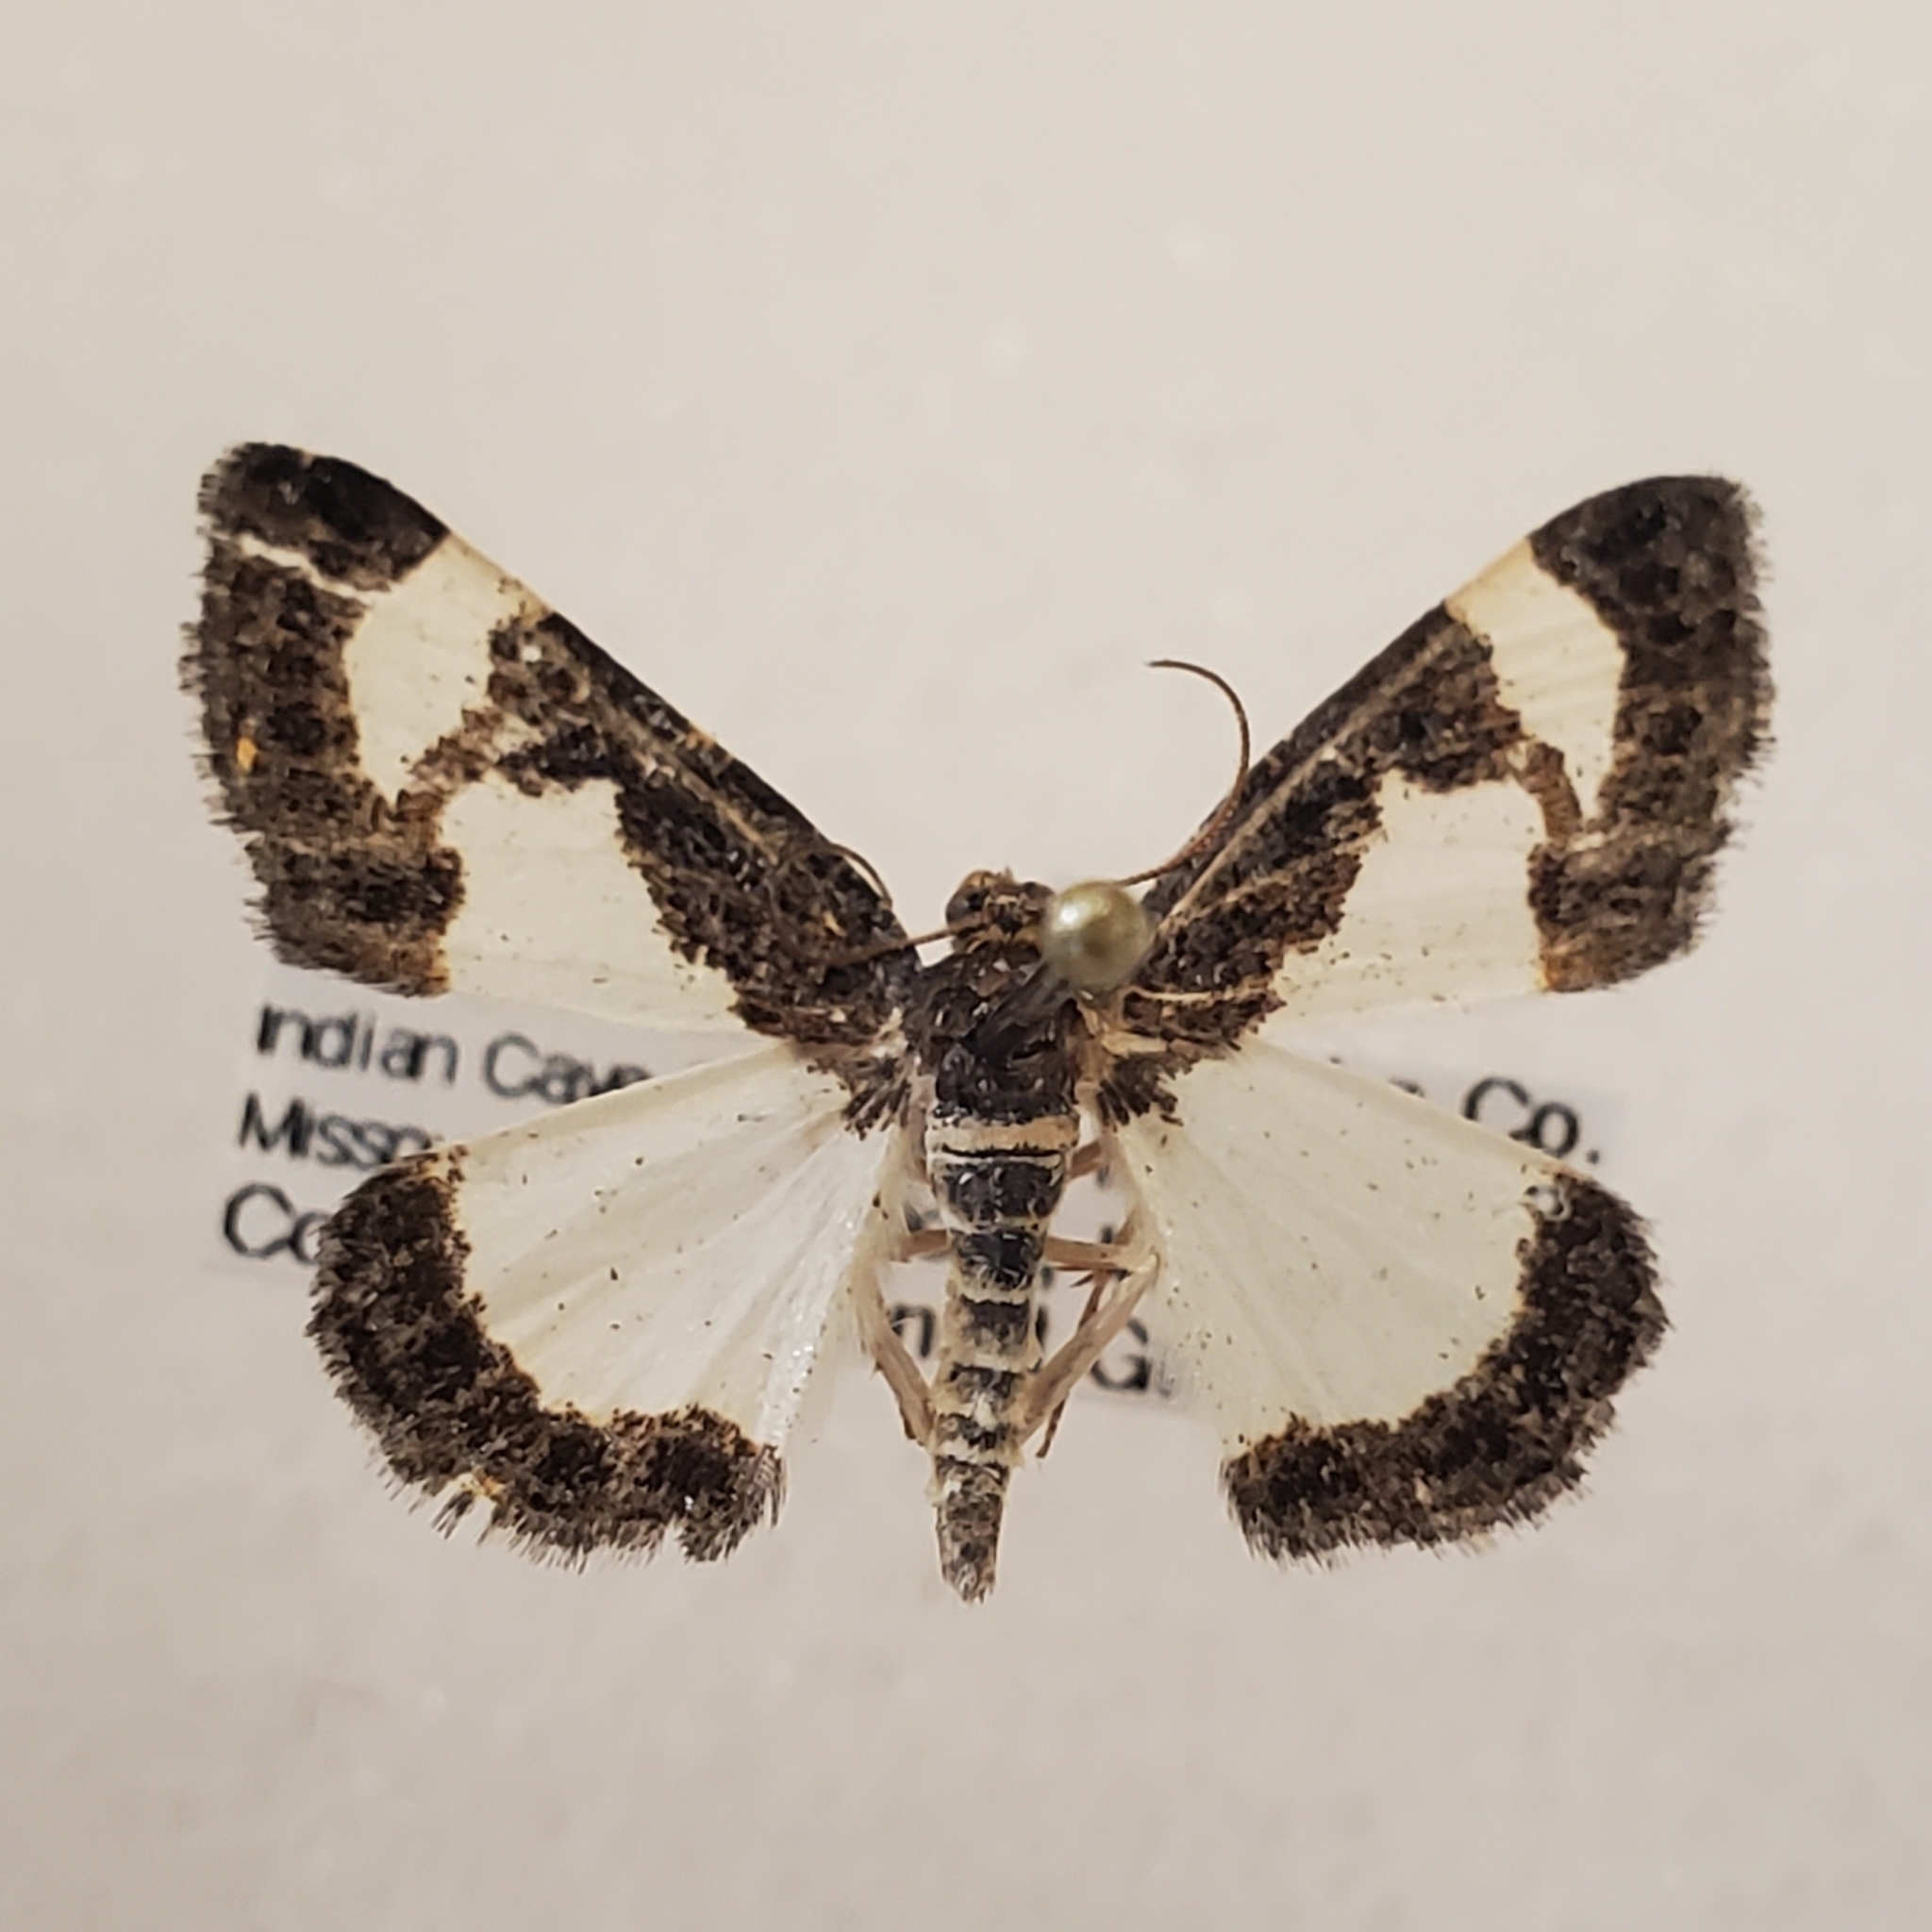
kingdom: Animalia
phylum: Arthropoda
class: Insecta
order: Lepidoptera
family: Geometridae
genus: Heliomata
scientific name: Heliomata cycladata
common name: Common spring moth
